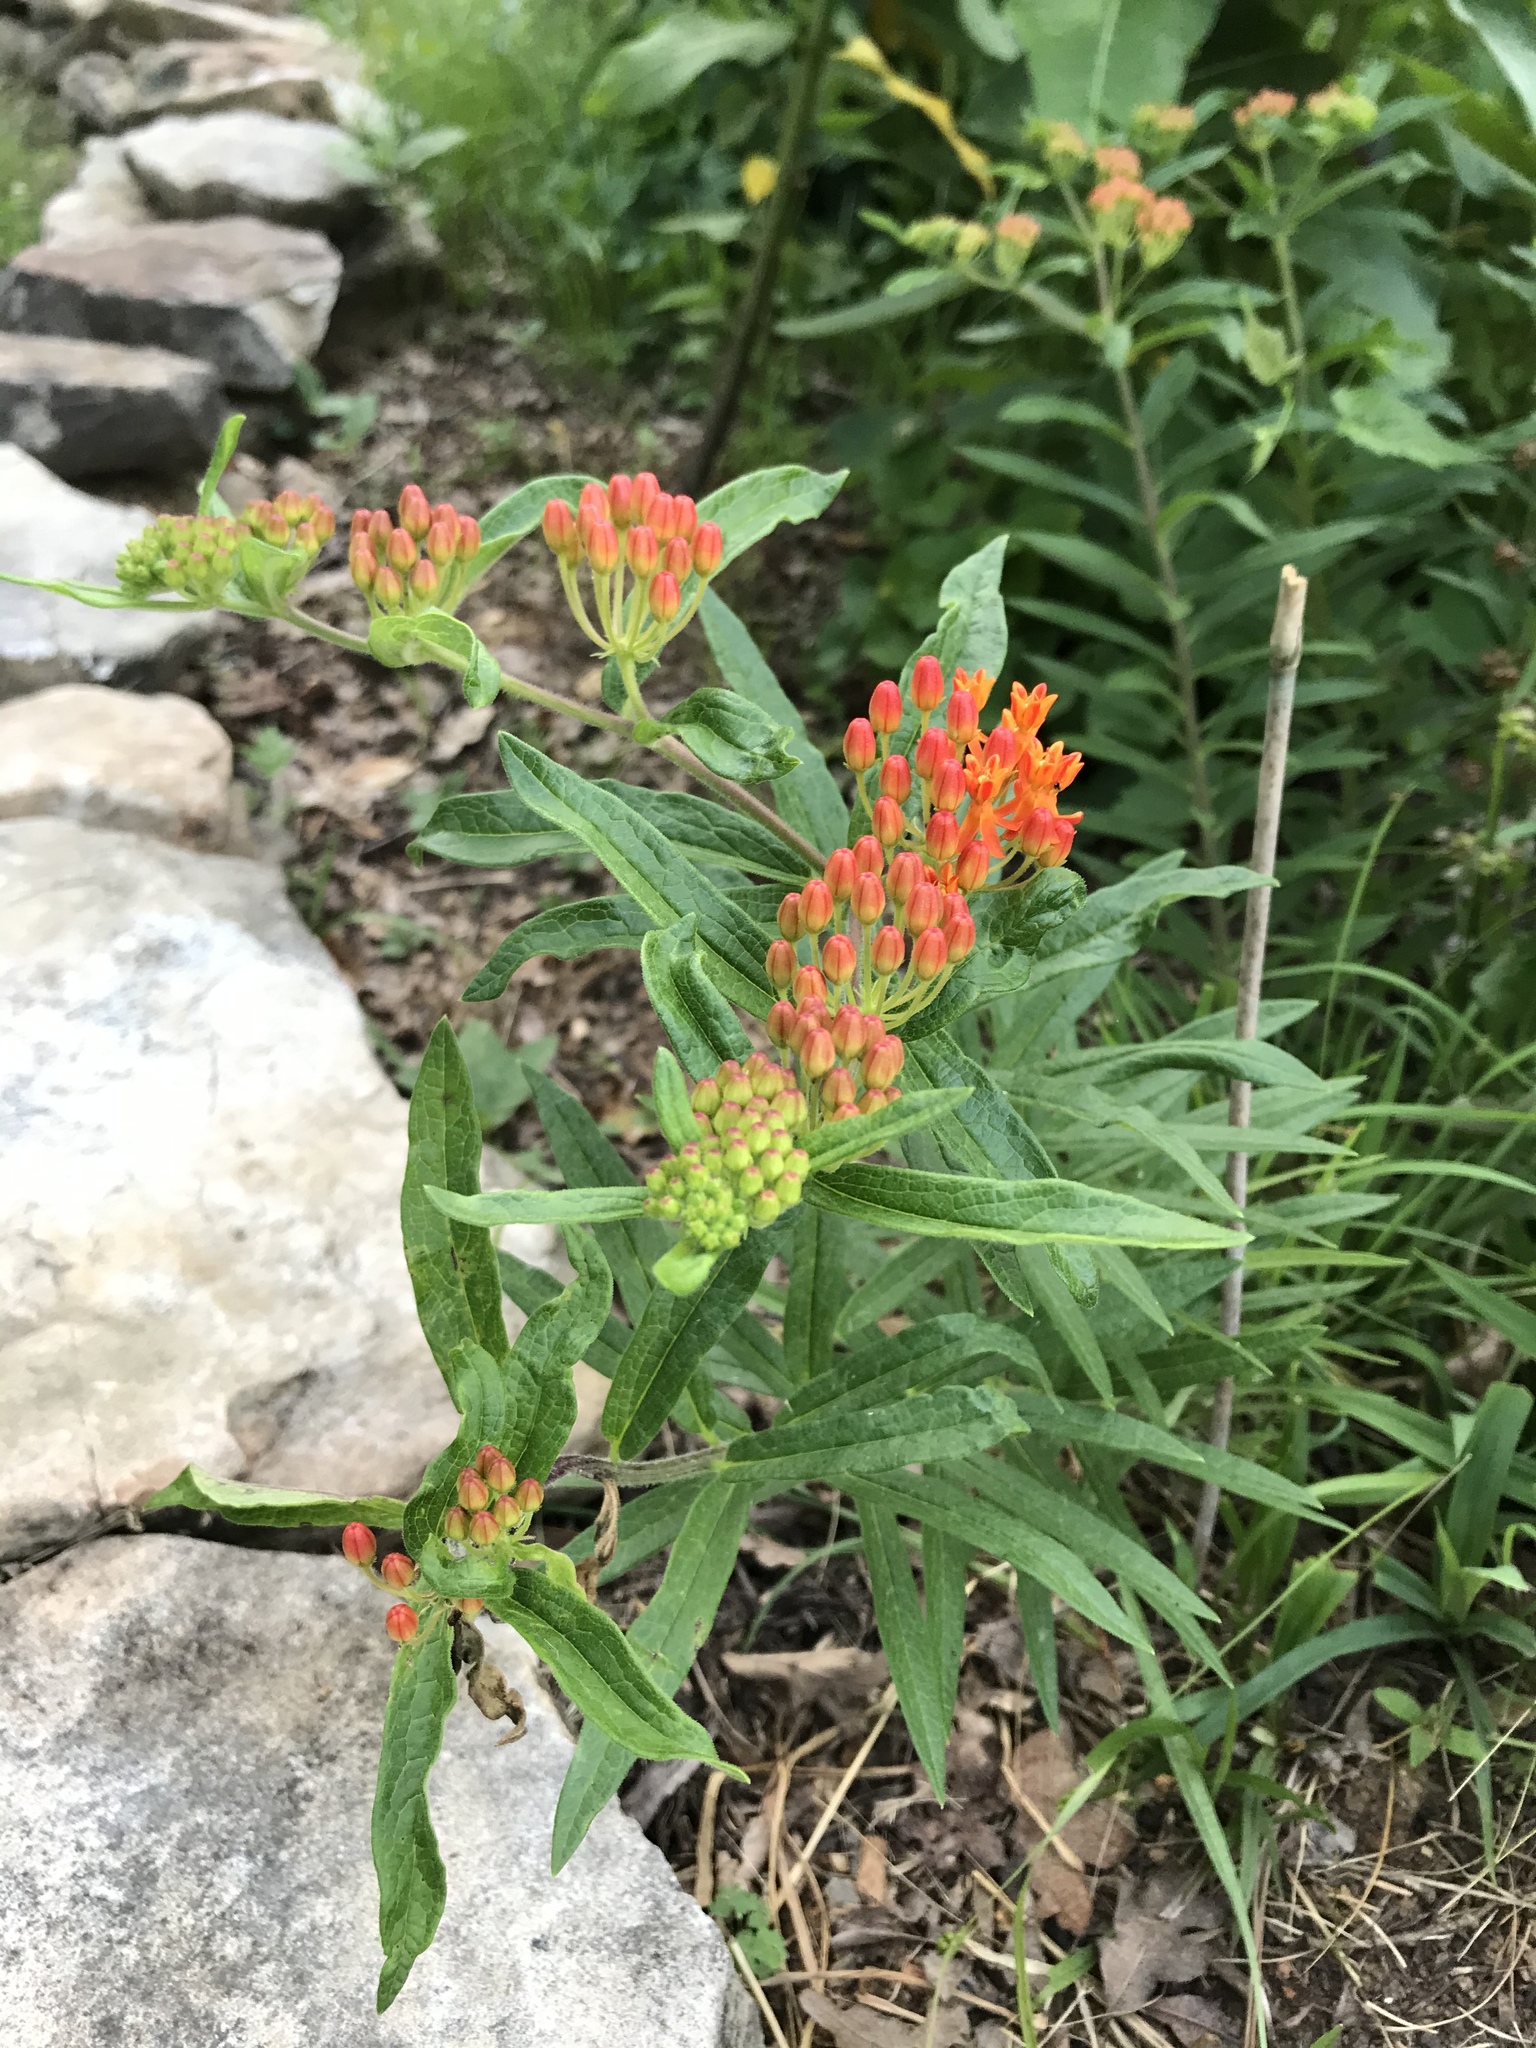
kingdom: Plantae
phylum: Tracheophyta
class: Magnoliopsida
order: Gentianales
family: Apocynaceae
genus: Asclepias
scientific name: Asclepias tuberosa
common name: Butterfly milkweed
